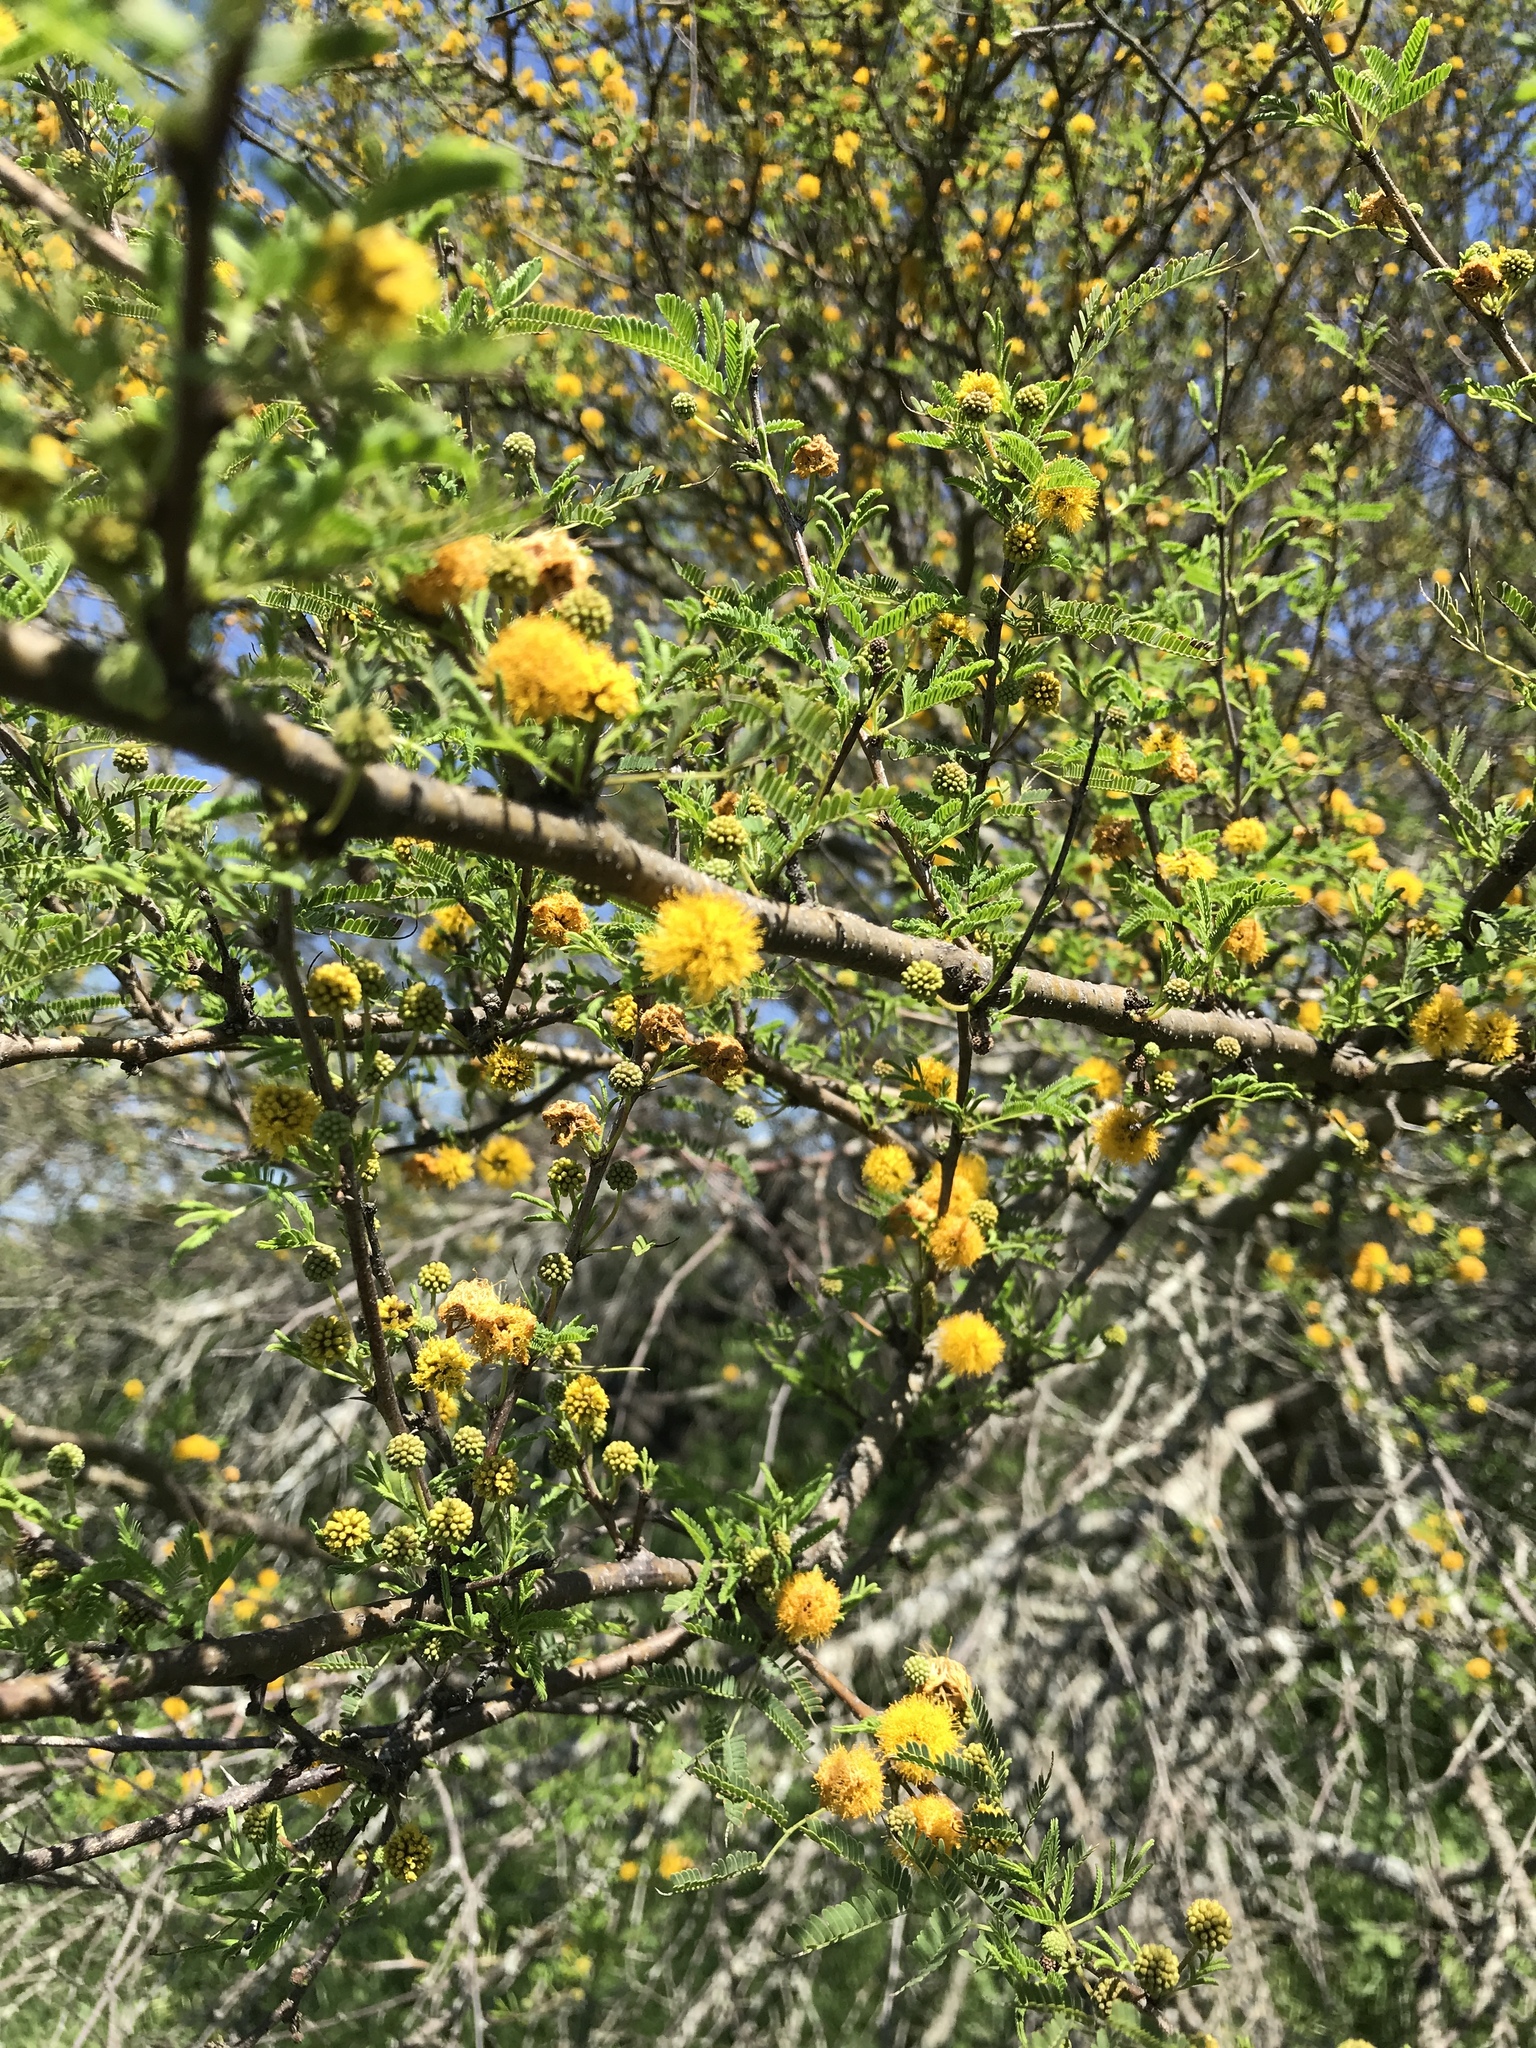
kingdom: Plantae
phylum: Tracheophyta
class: Magnoliopsida
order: Fabales
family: Fabaceae
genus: Vachellia
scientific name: Vachellia farnesiana
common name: Sweet acacia
